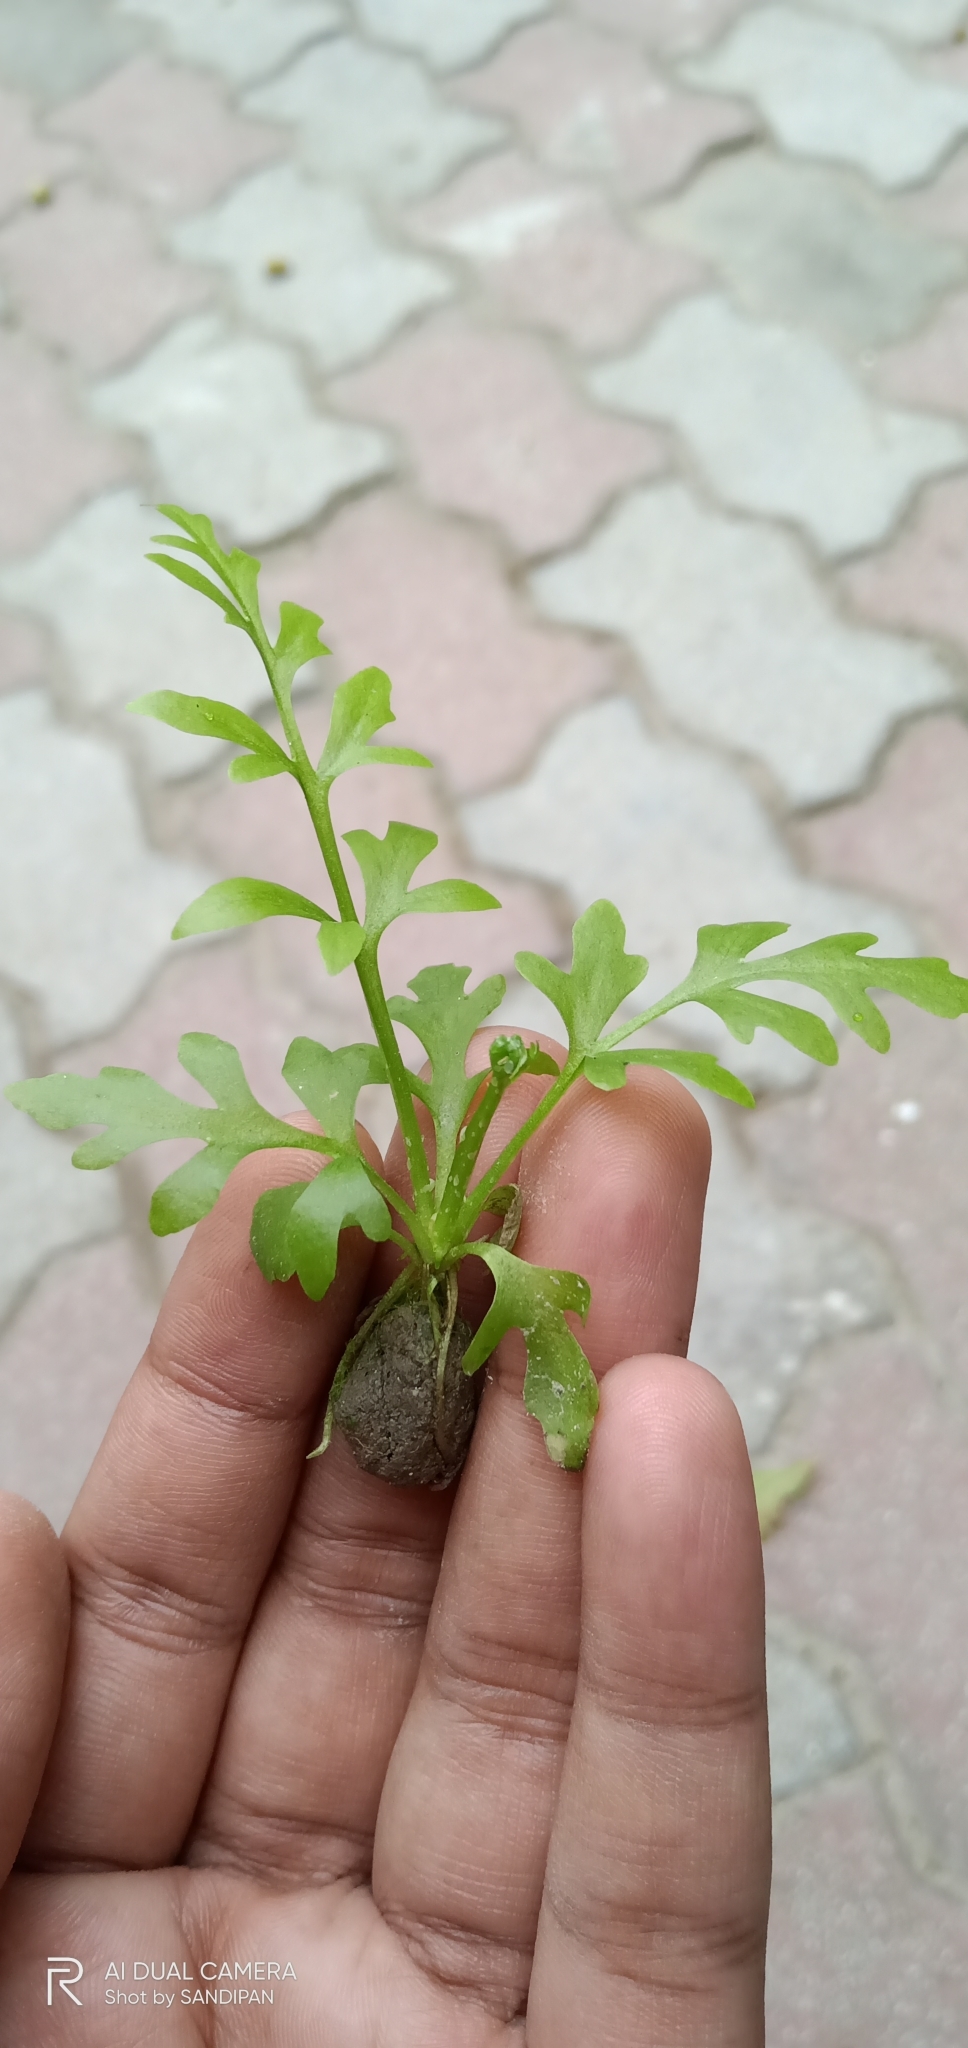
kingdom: Plantae
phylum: Tracheophyta
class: Polypodiopsida
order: Polypodiales
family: Pteridaceae
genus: Ceratopteris
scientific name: Ceratopteris thalictroides
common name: Water fern
